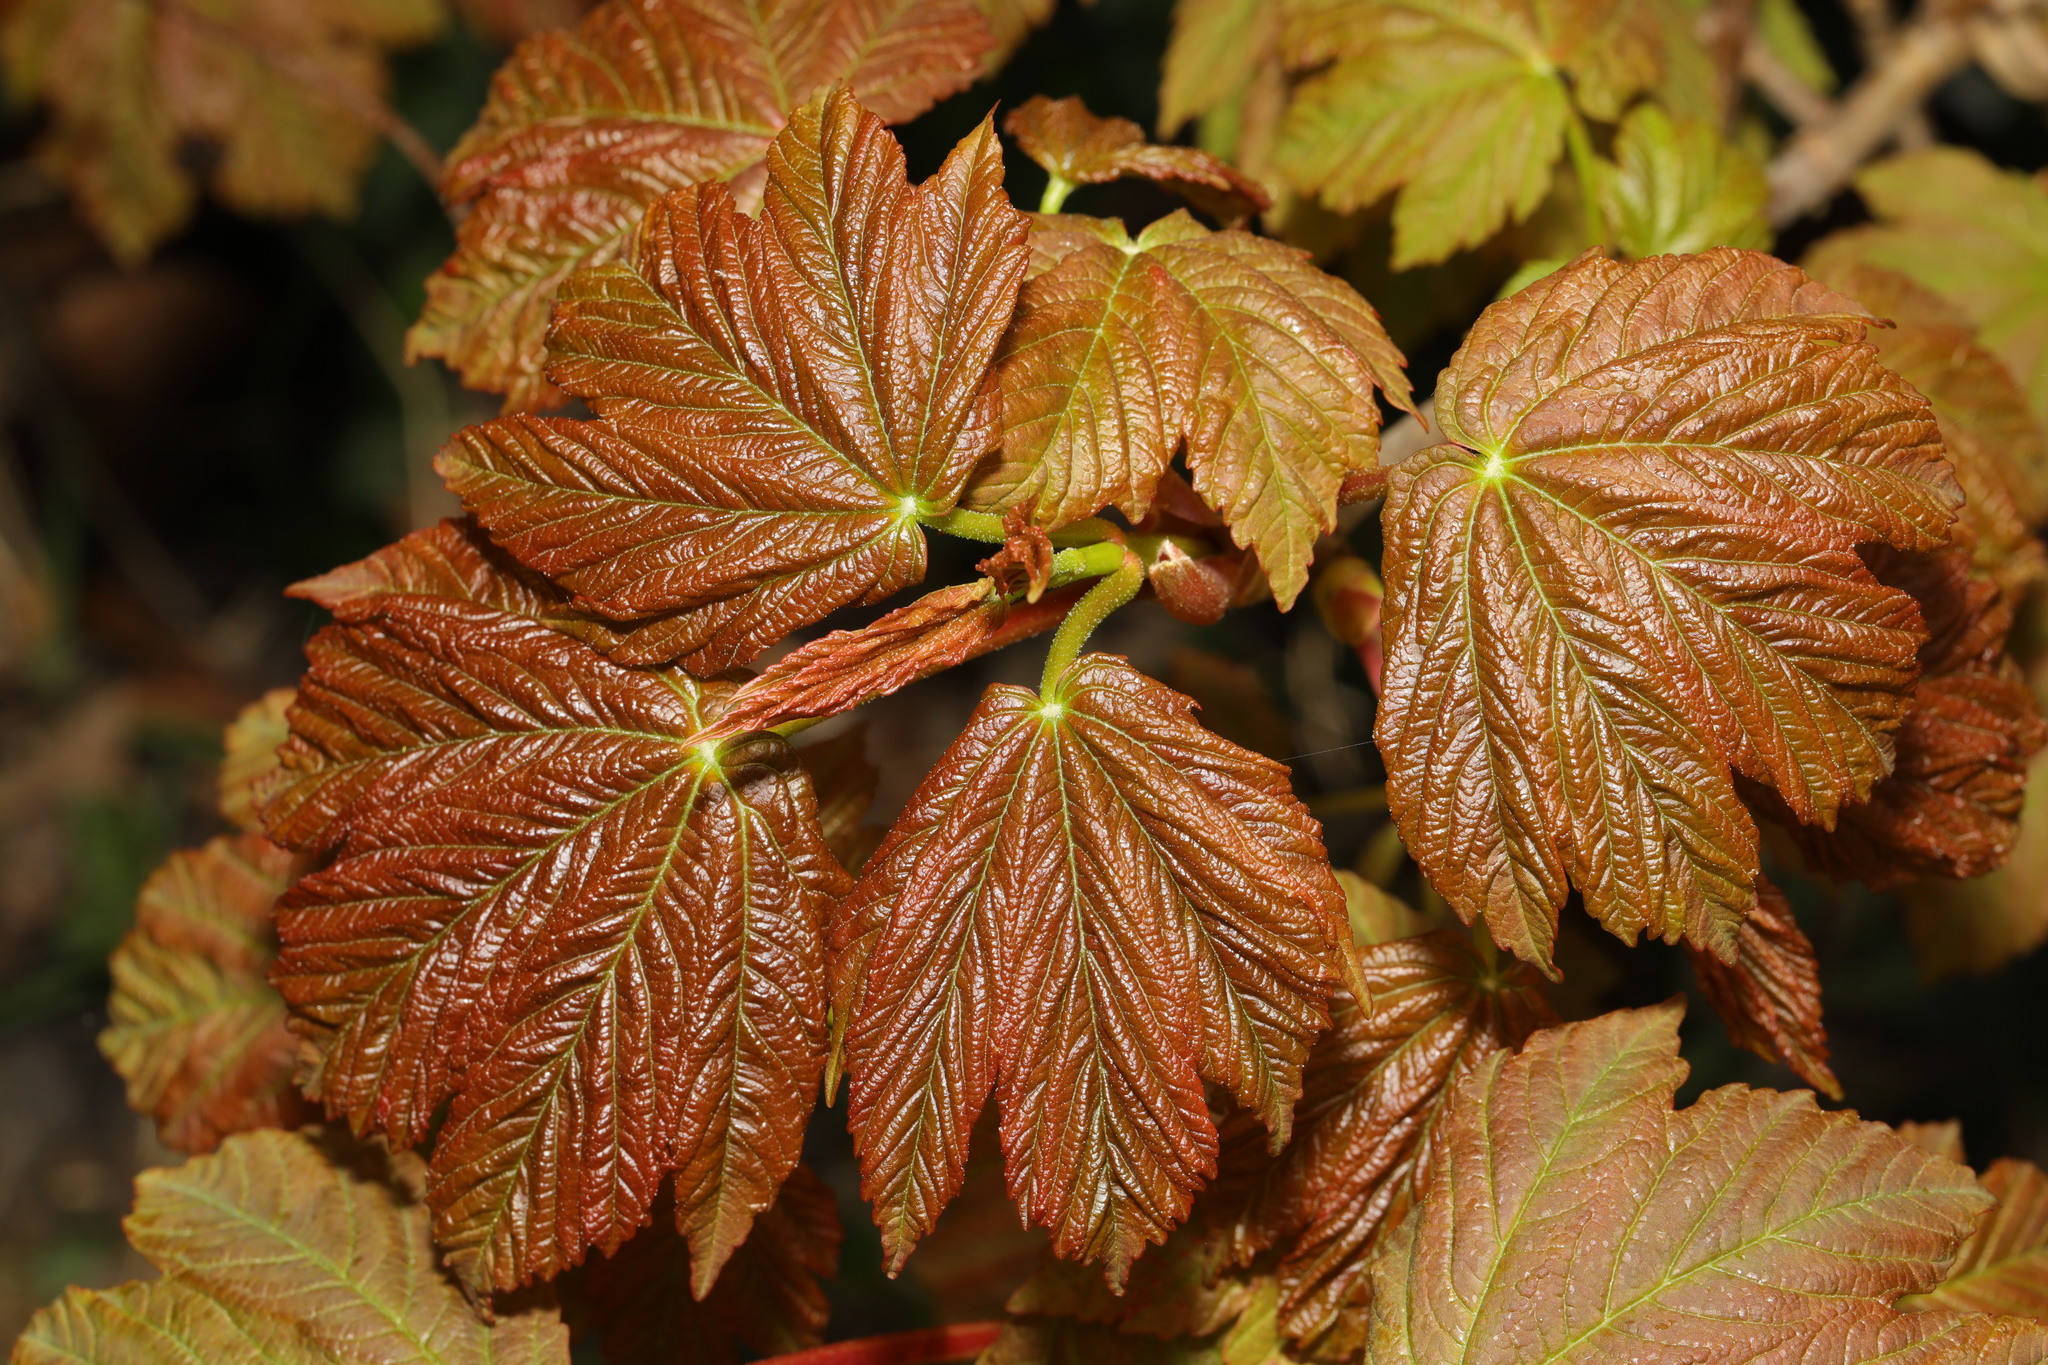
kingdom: Plantae
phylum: Tracheophyta
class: Magnoliopsida
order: Sapindales
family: Sapindaceae
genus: Acer
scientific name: Acer pseudoplatanus
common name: Sycamore
